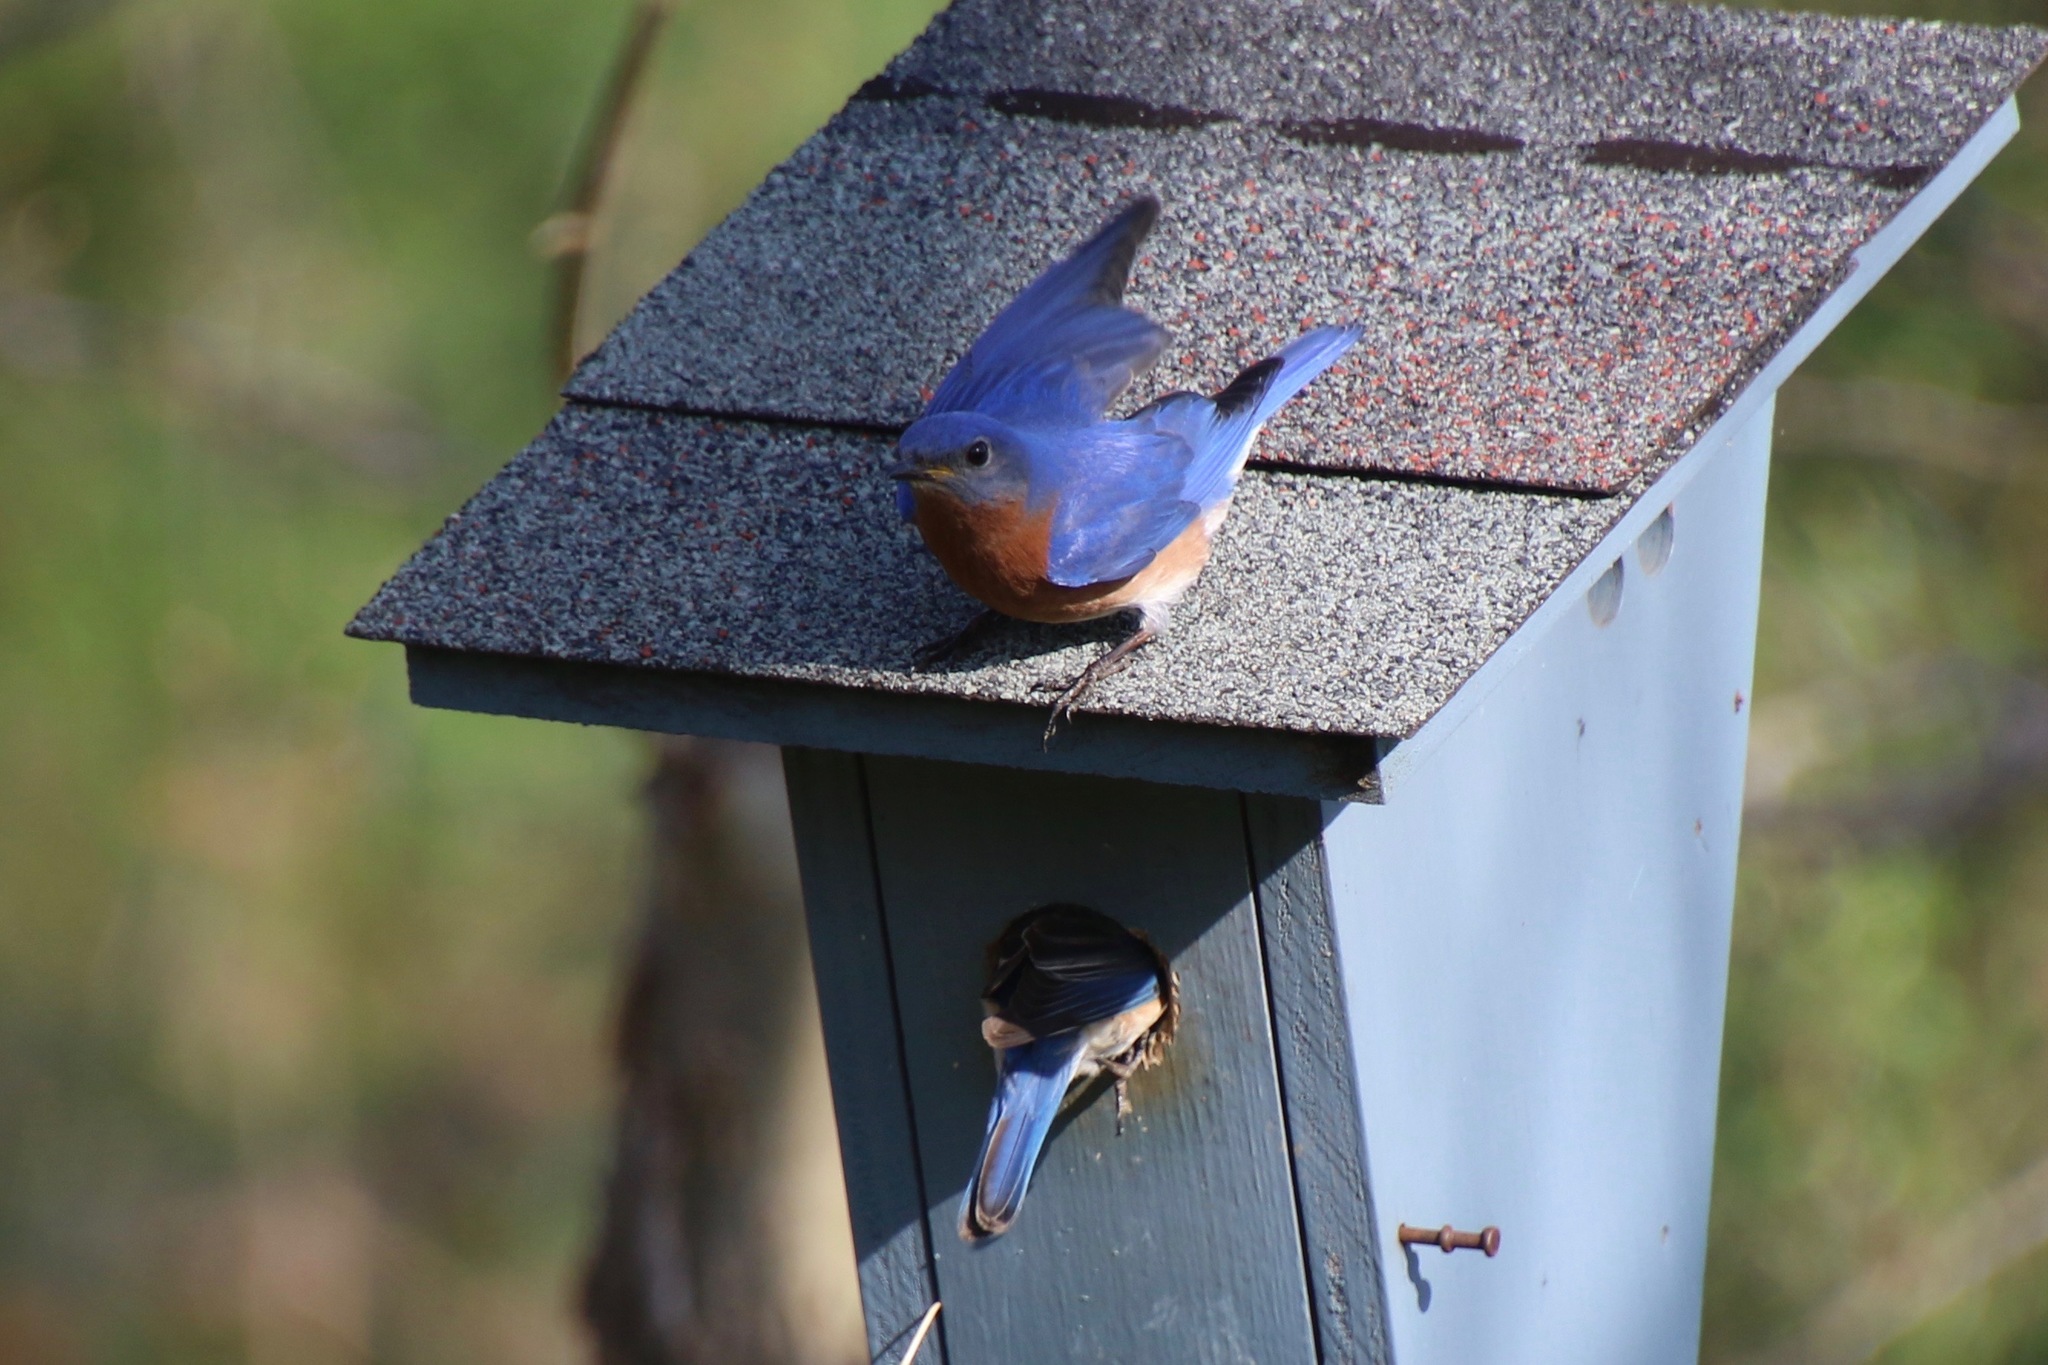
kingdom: Animalia
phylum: Chordata
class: Aves
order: Passeriformes
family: Turdidae
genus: Sialia
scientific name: Sialia sialis
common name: Eastern bluebird
